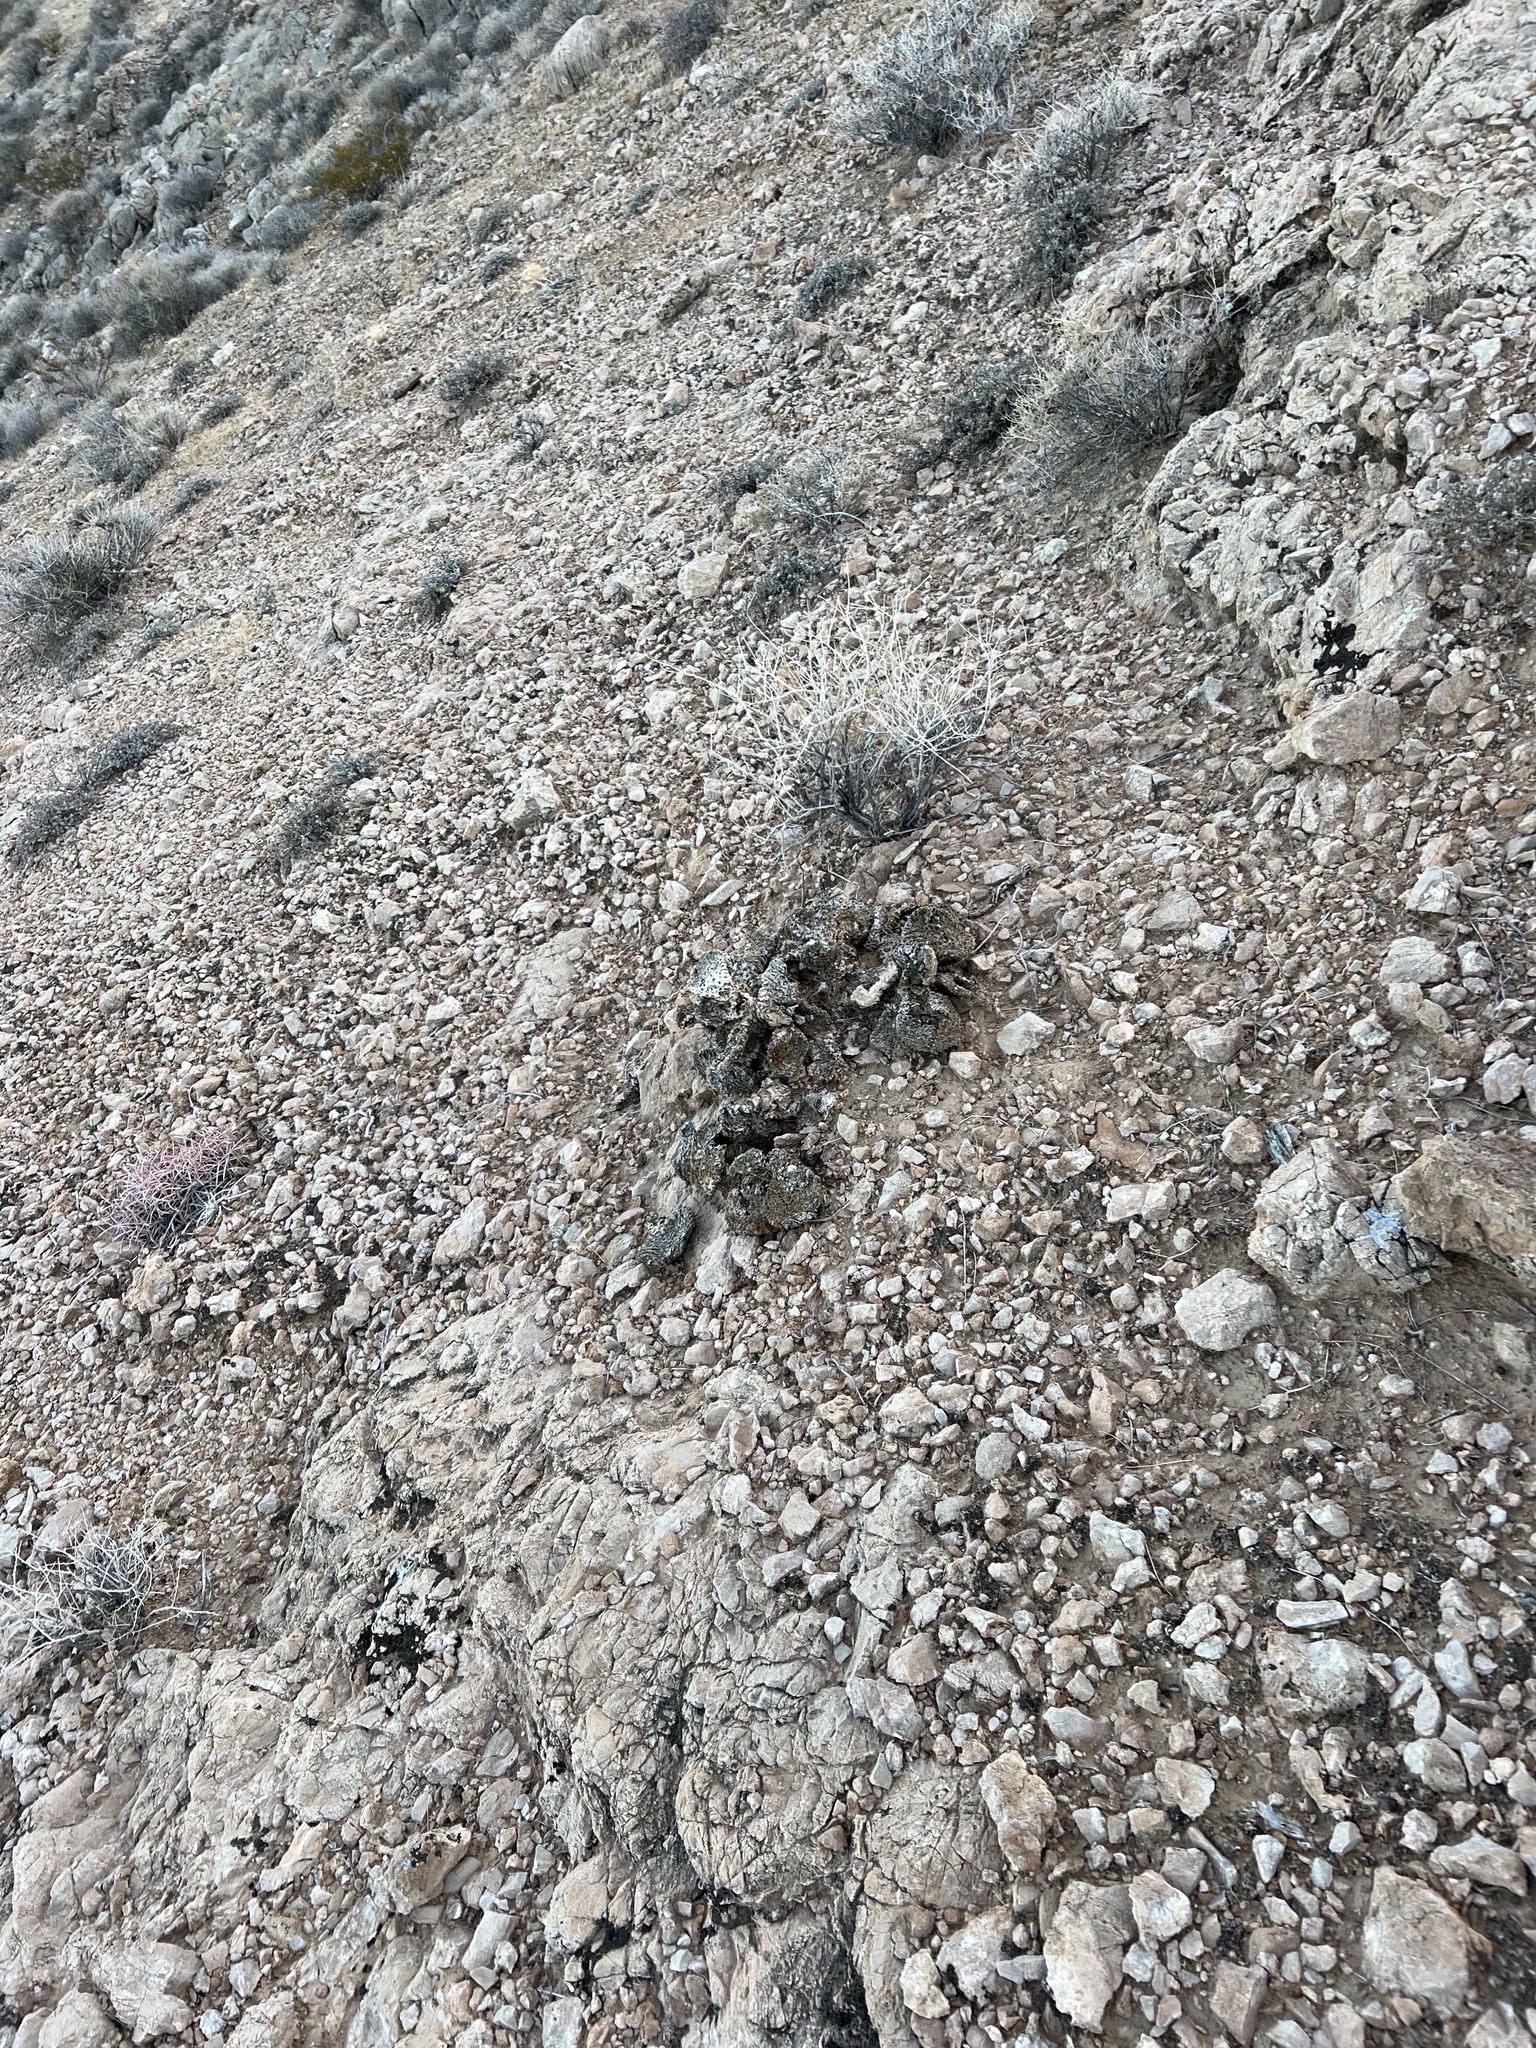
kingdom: Plantae
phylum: Tracheophyta
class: Magnoliopsida
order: Caryophyllales
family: Cactaceae
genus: Opuntia
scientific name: Opuntia basilaris
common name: Beavertail prickly-pear
